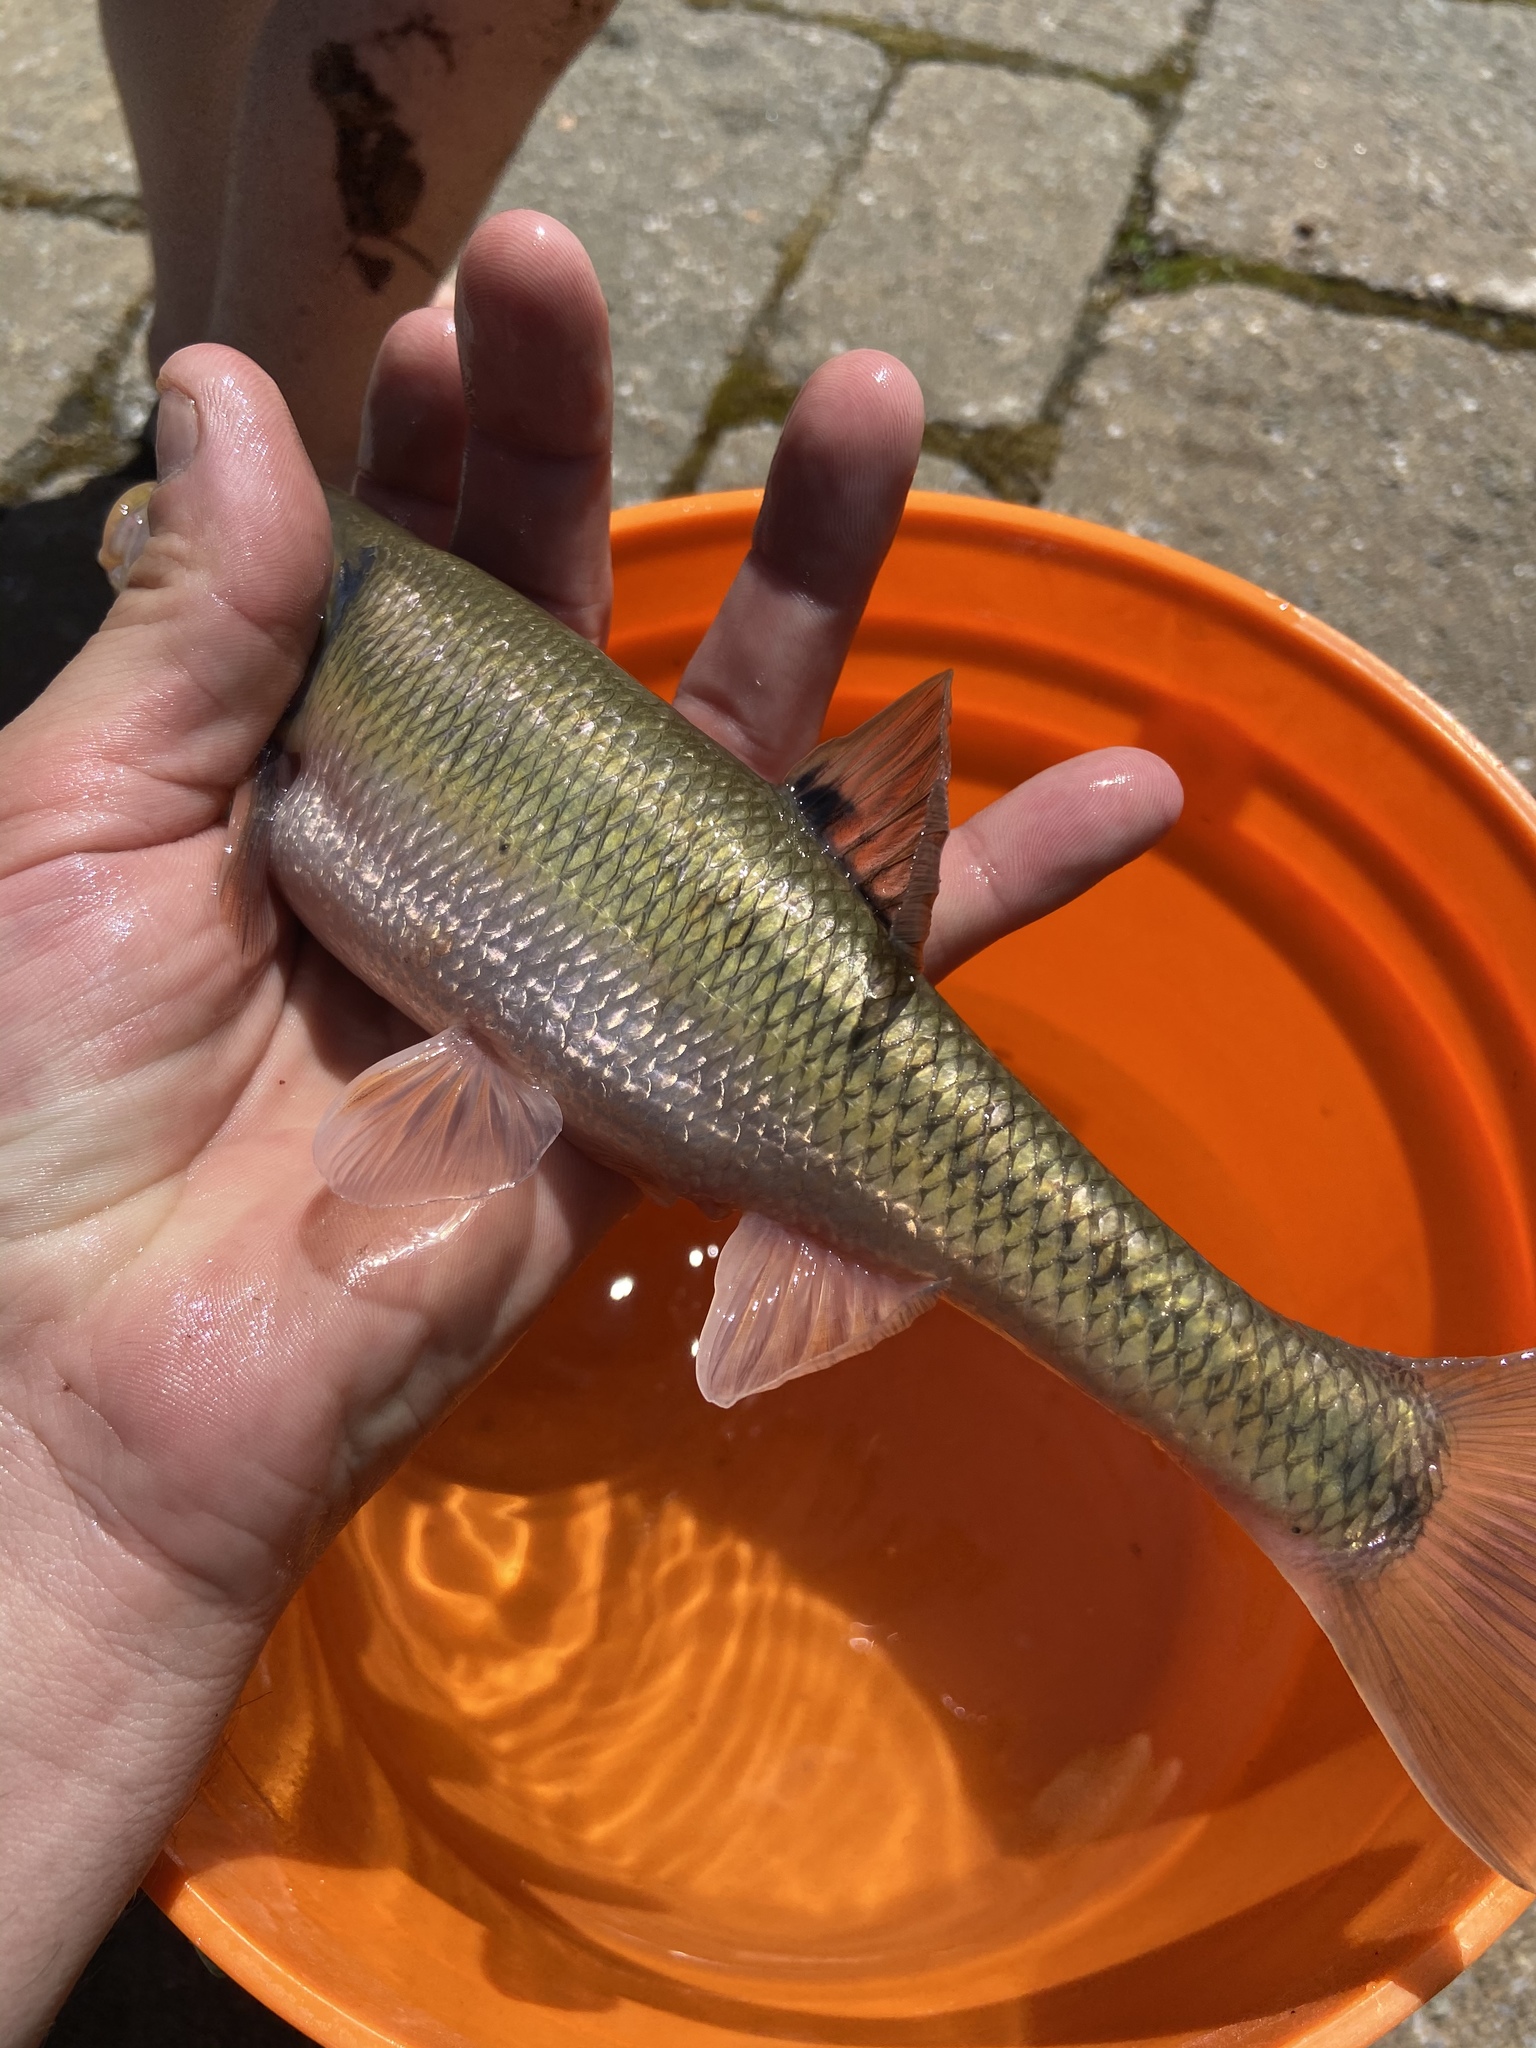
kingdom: Animalia
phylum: Chordata
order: Cypriniformes
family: Cyprinidae
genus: Semotilus
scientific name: Semotilus atromaculatus
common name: Creek chub
